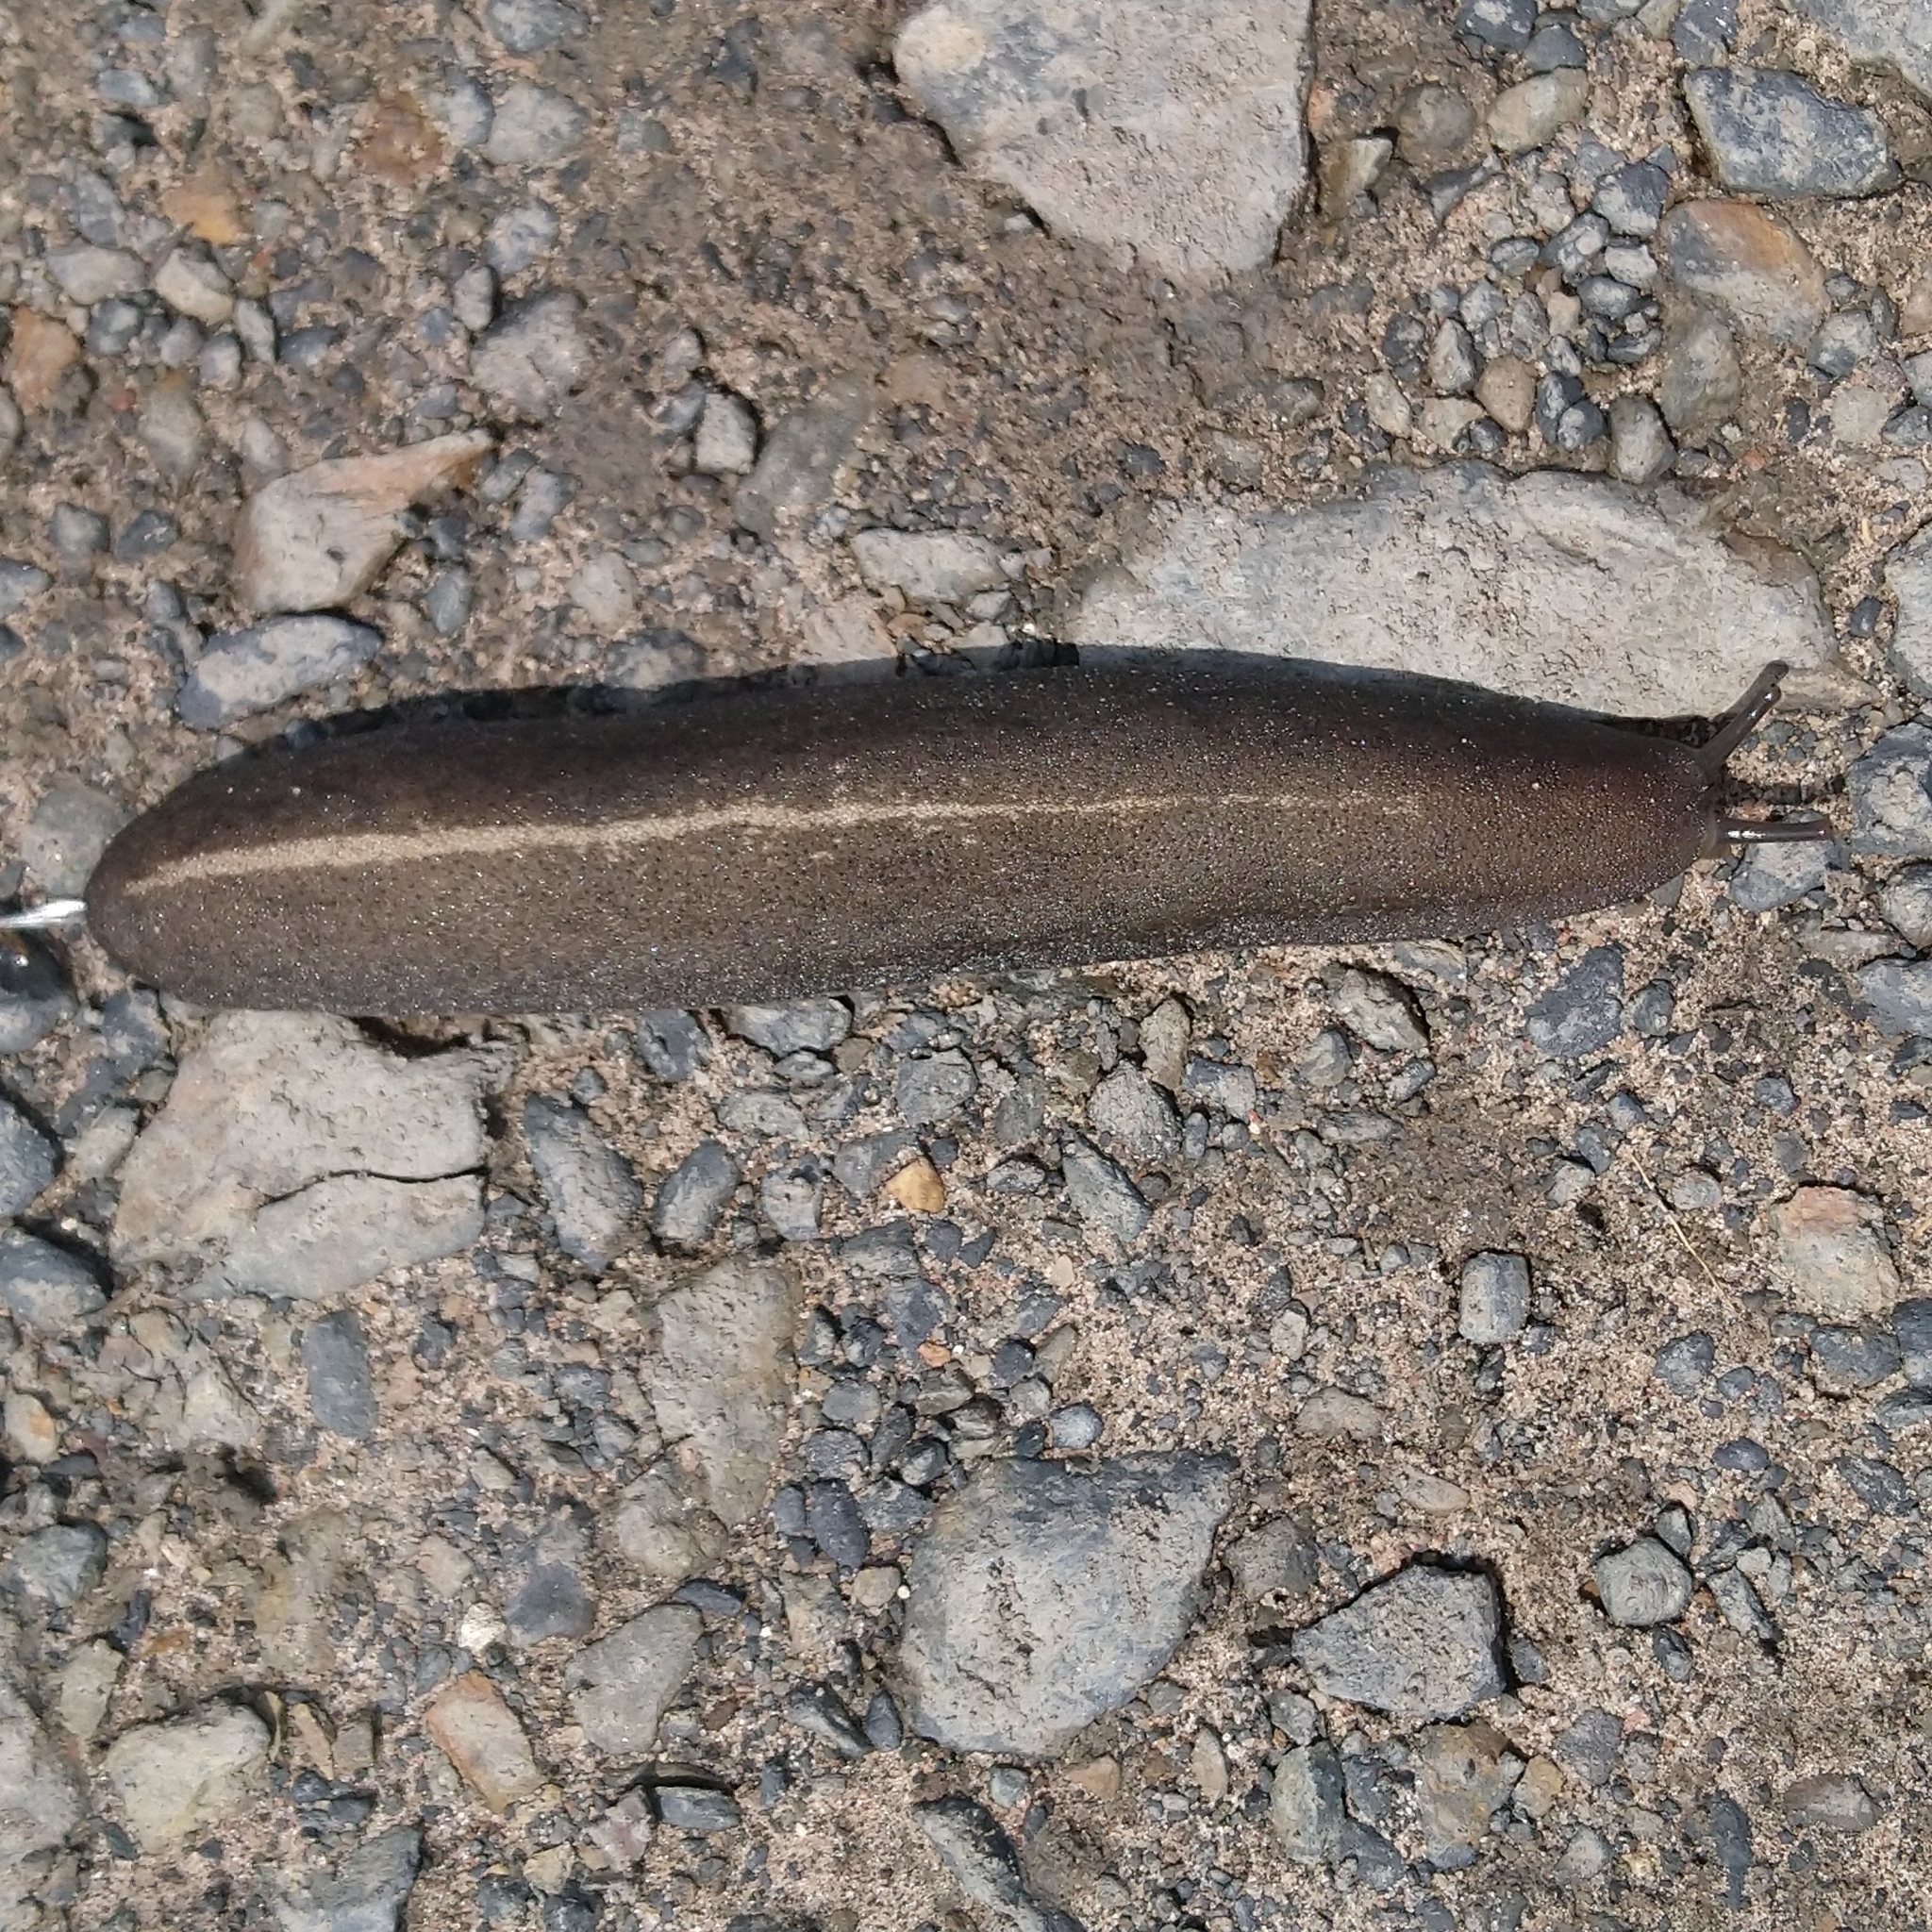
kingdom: Animalia
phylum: Mollusca
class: Gastropoda
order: Systellommatophora
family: Veronicellidae
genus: Laevicaulis
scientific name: Laevicaulis alte
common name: Tropical leatherleaf
